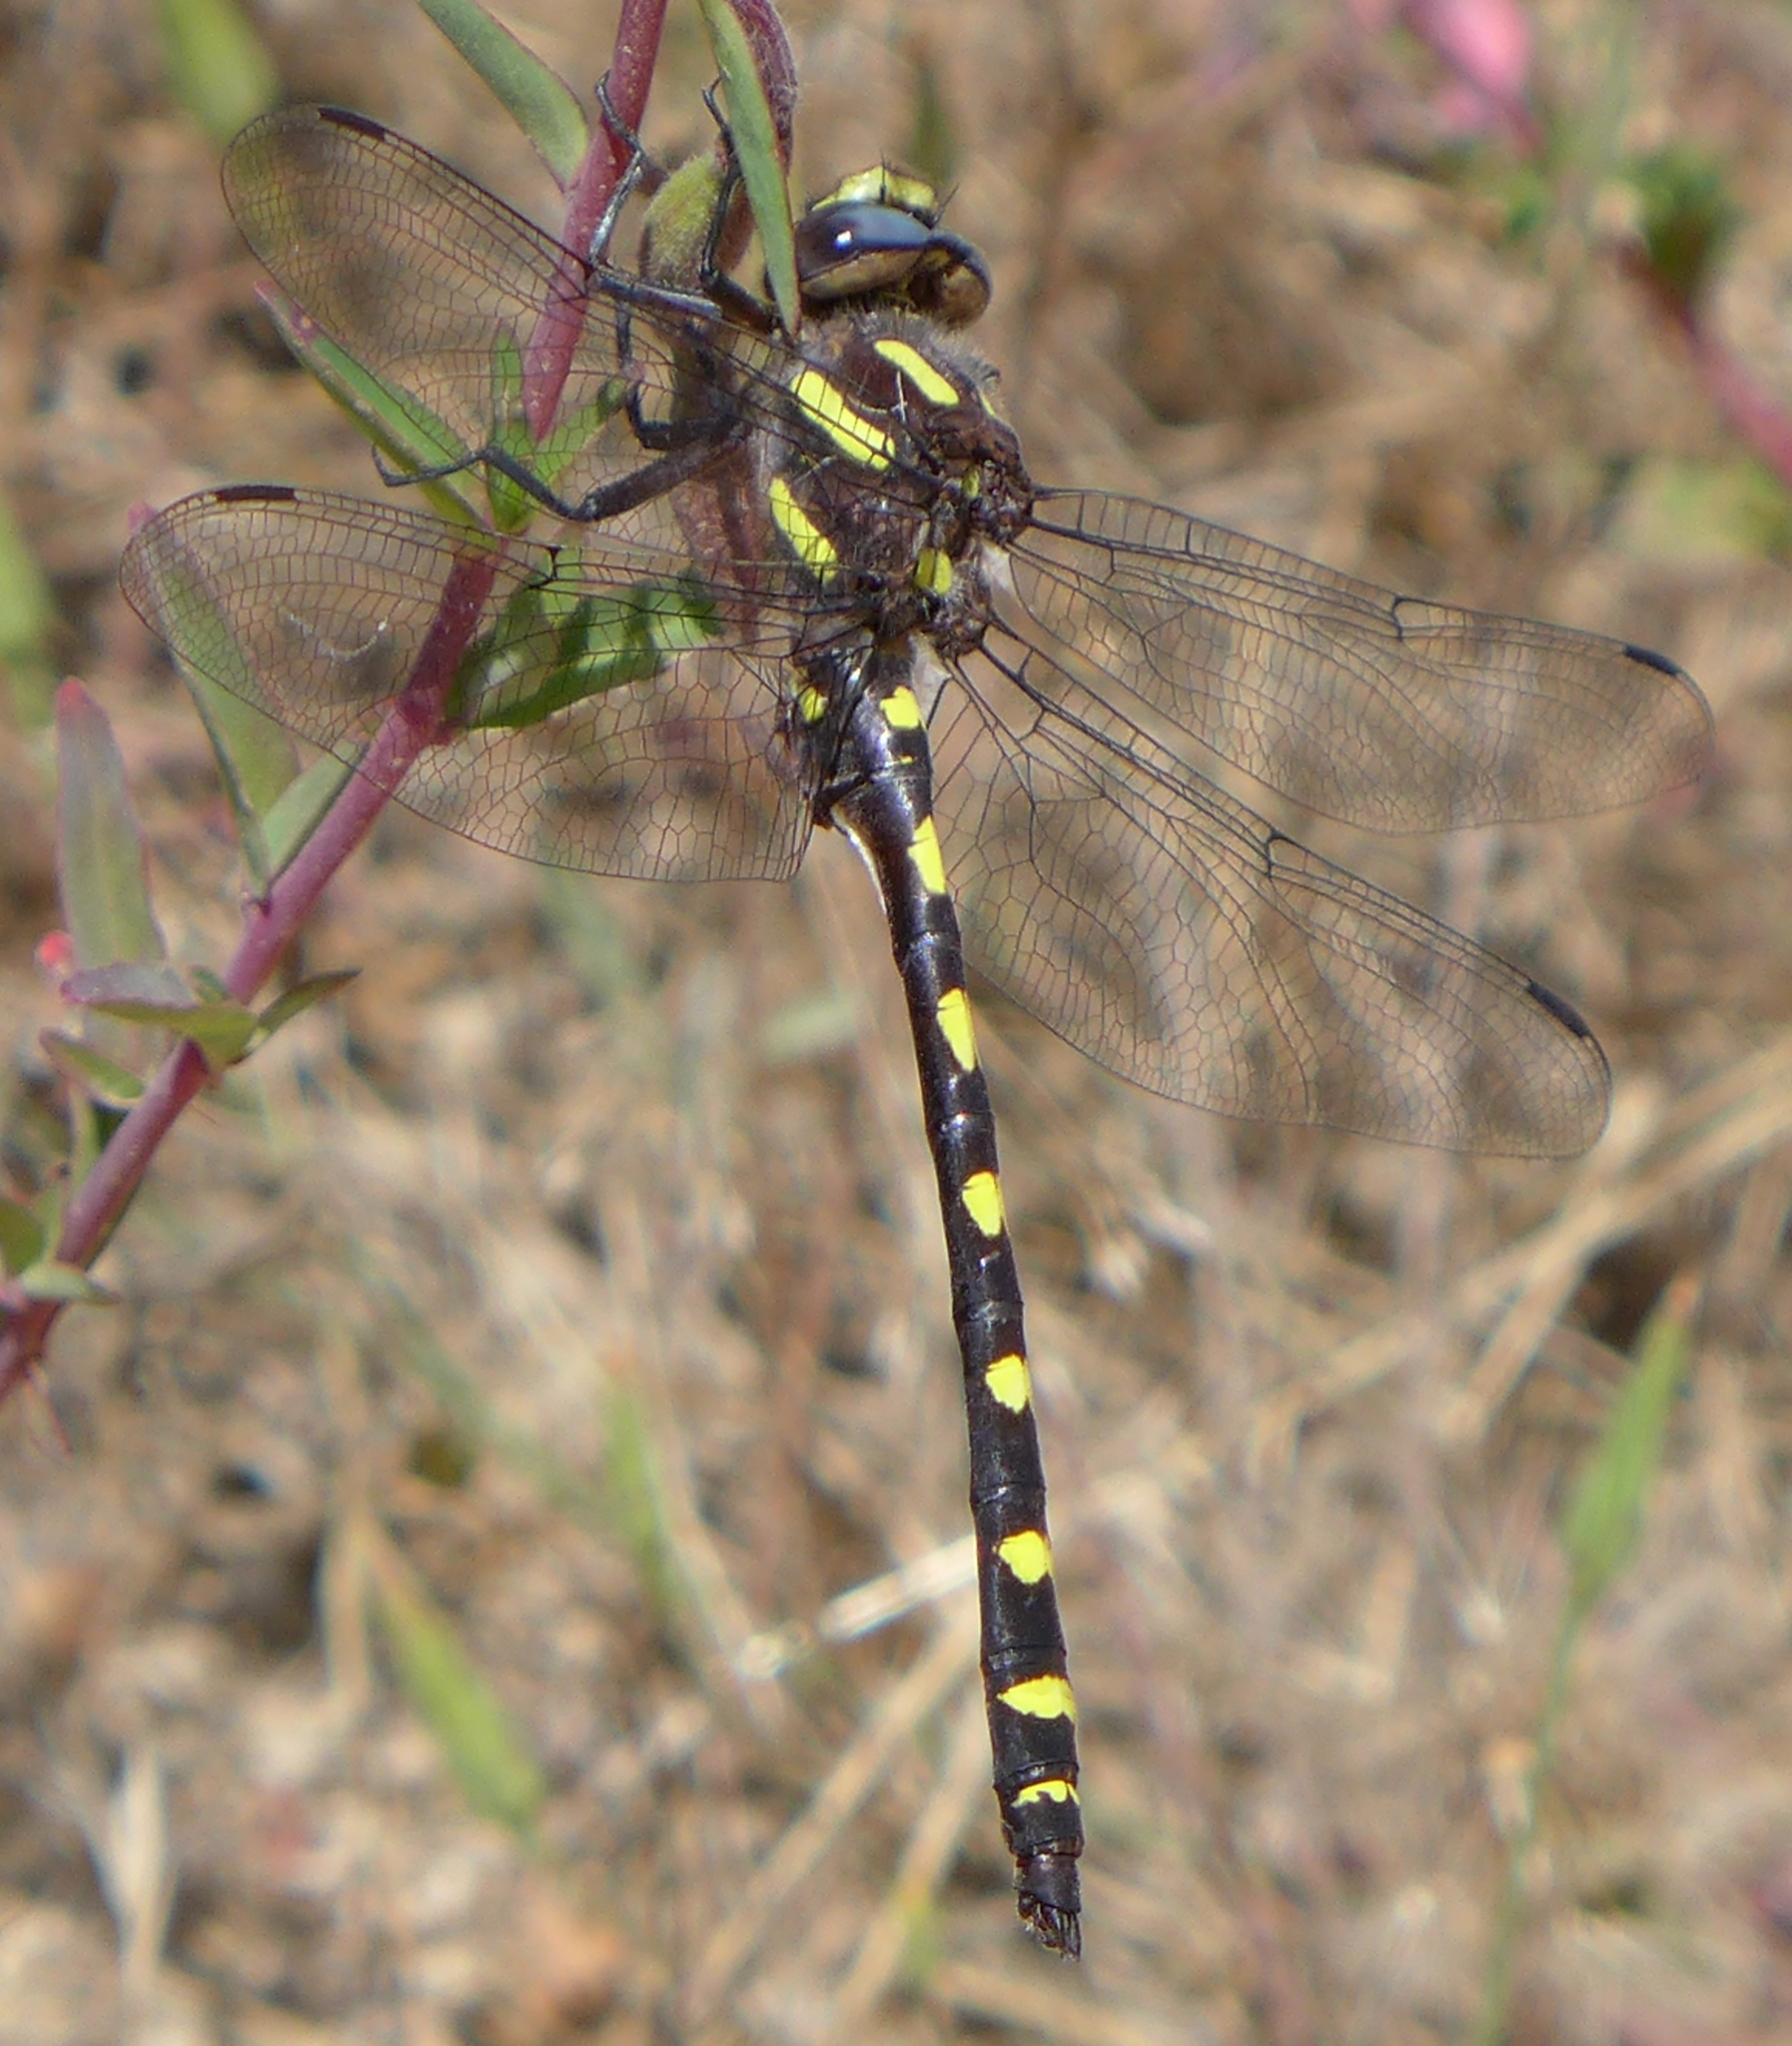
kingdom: Animalia
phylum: Arthropoda
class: Insecta
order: Odonata
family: Cordulegastridae
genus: Cordulegaster
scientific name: Cordulegaster dorsalis
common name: Pacific spiketail
